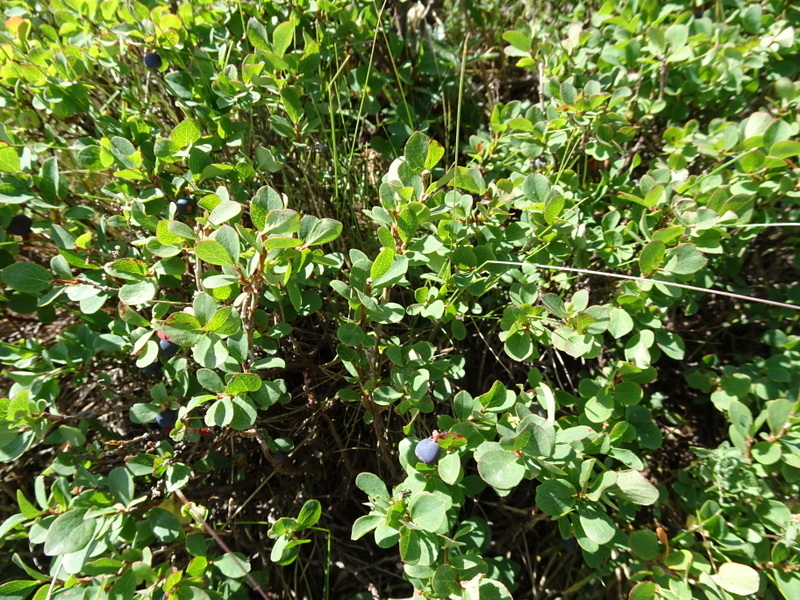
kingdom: Plantae
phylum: Tracheophyta
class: Magnoliopsida
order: Ericales
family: Ericaceae
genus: Vaccinium
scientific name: Vaccinium uliginosum
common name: Bog bilberry
